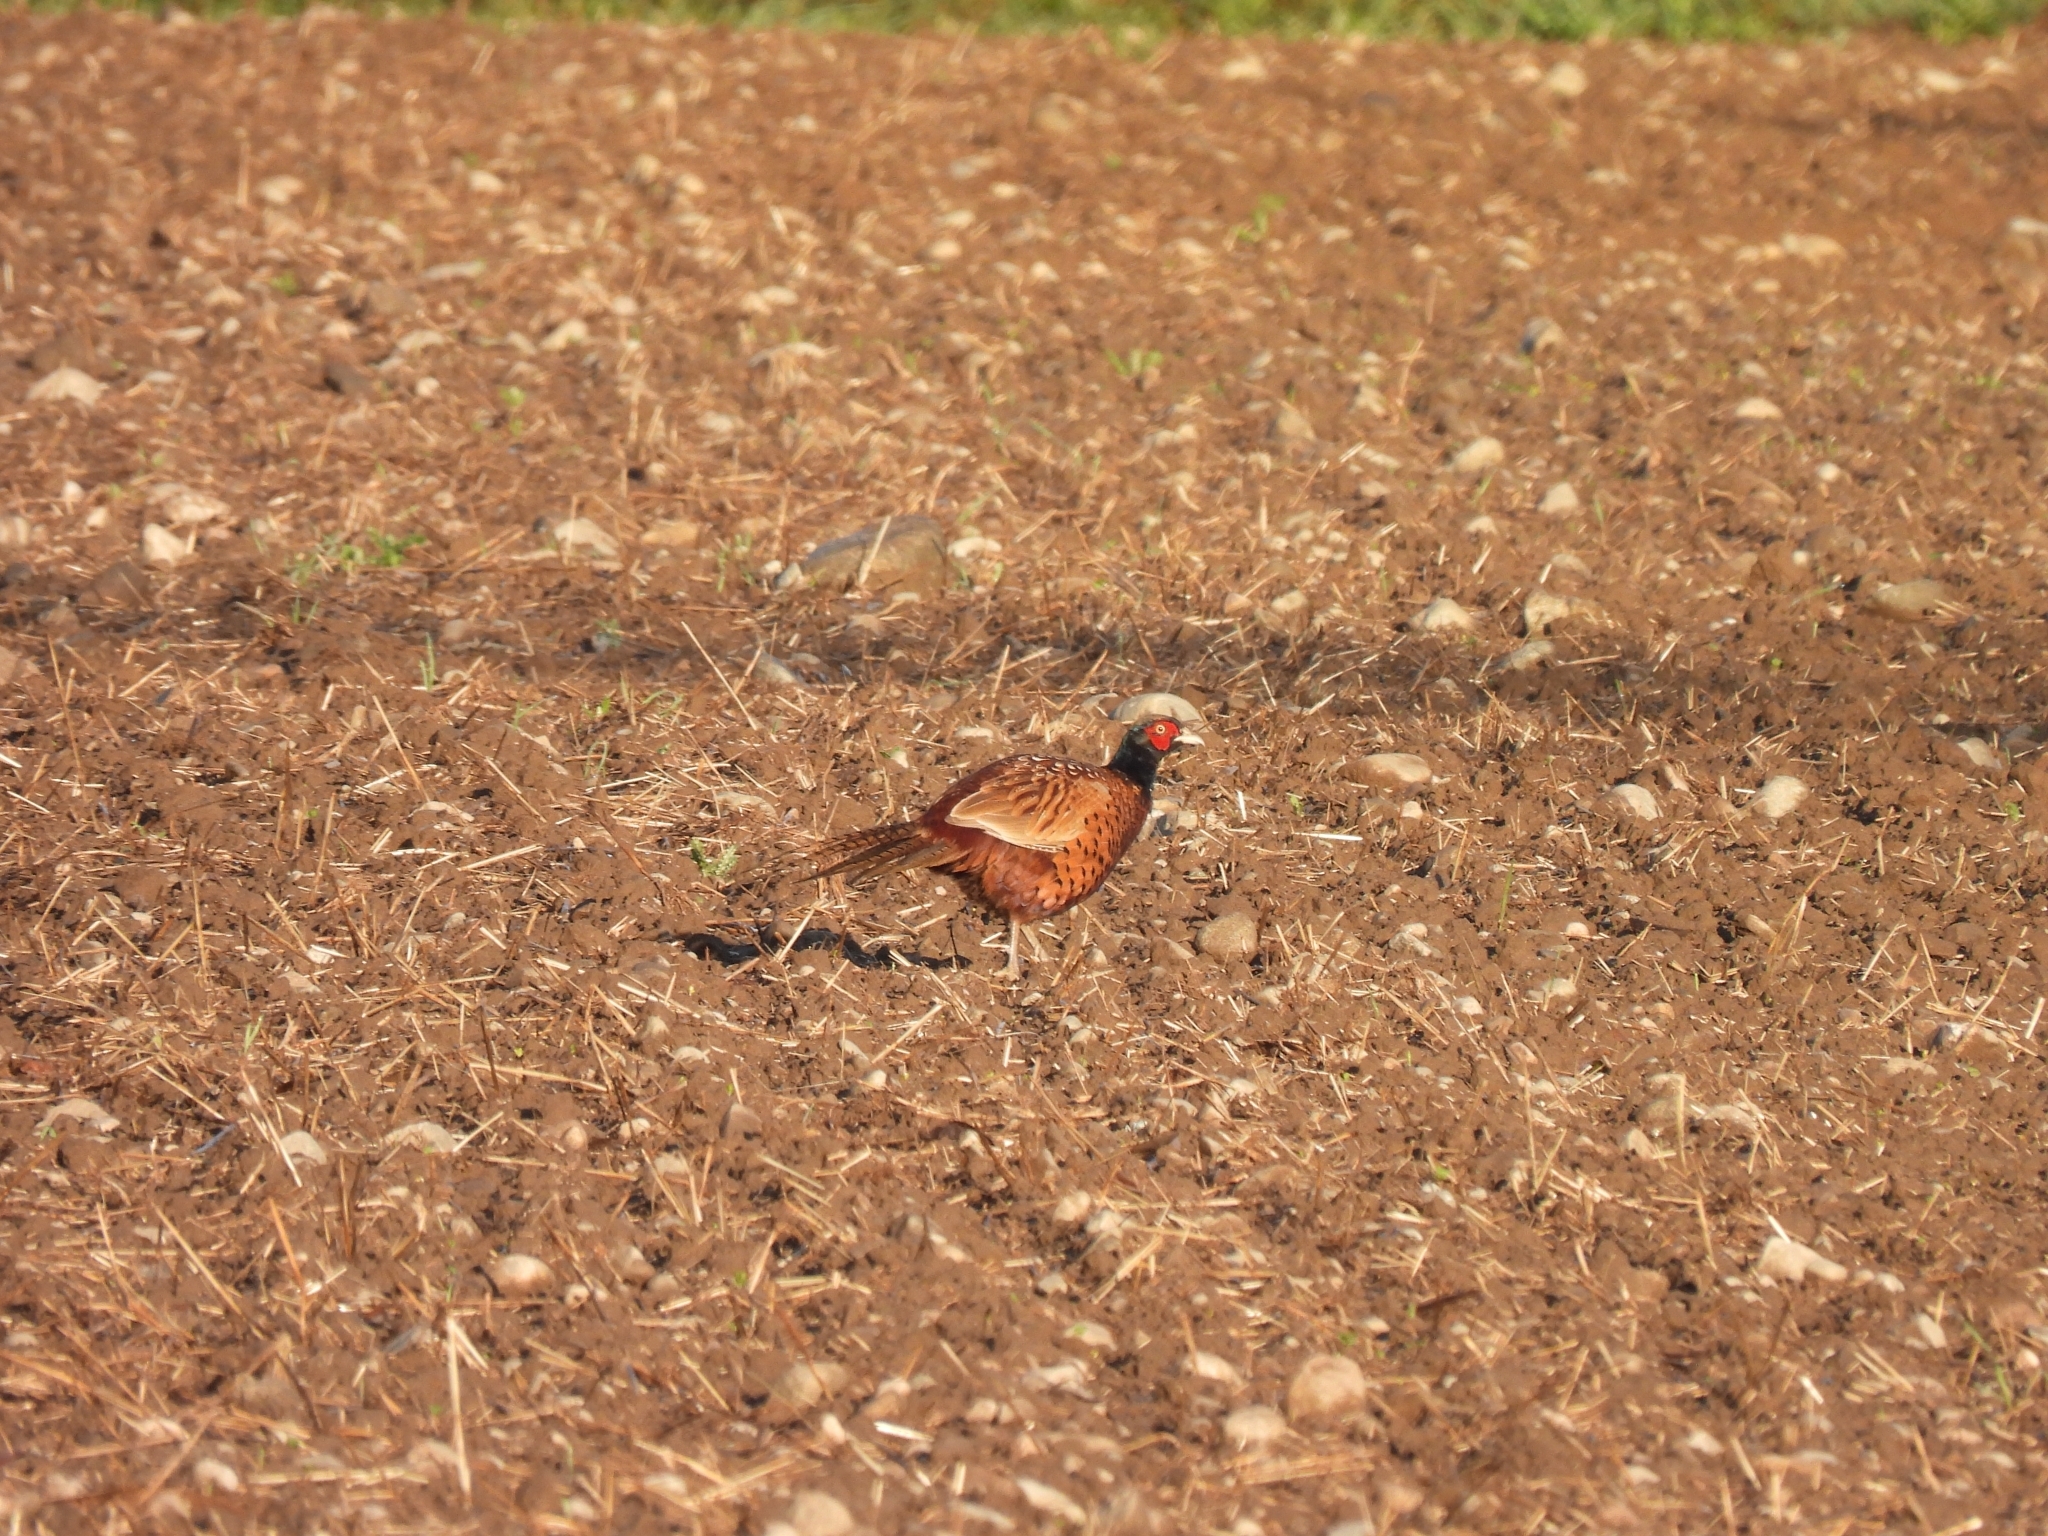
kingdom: Animalia
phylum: Chordata
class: Aves
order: Galliformes
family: Phasianidae
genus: Phasianus
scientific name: Phasianus colchicus
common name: Common pheasant
